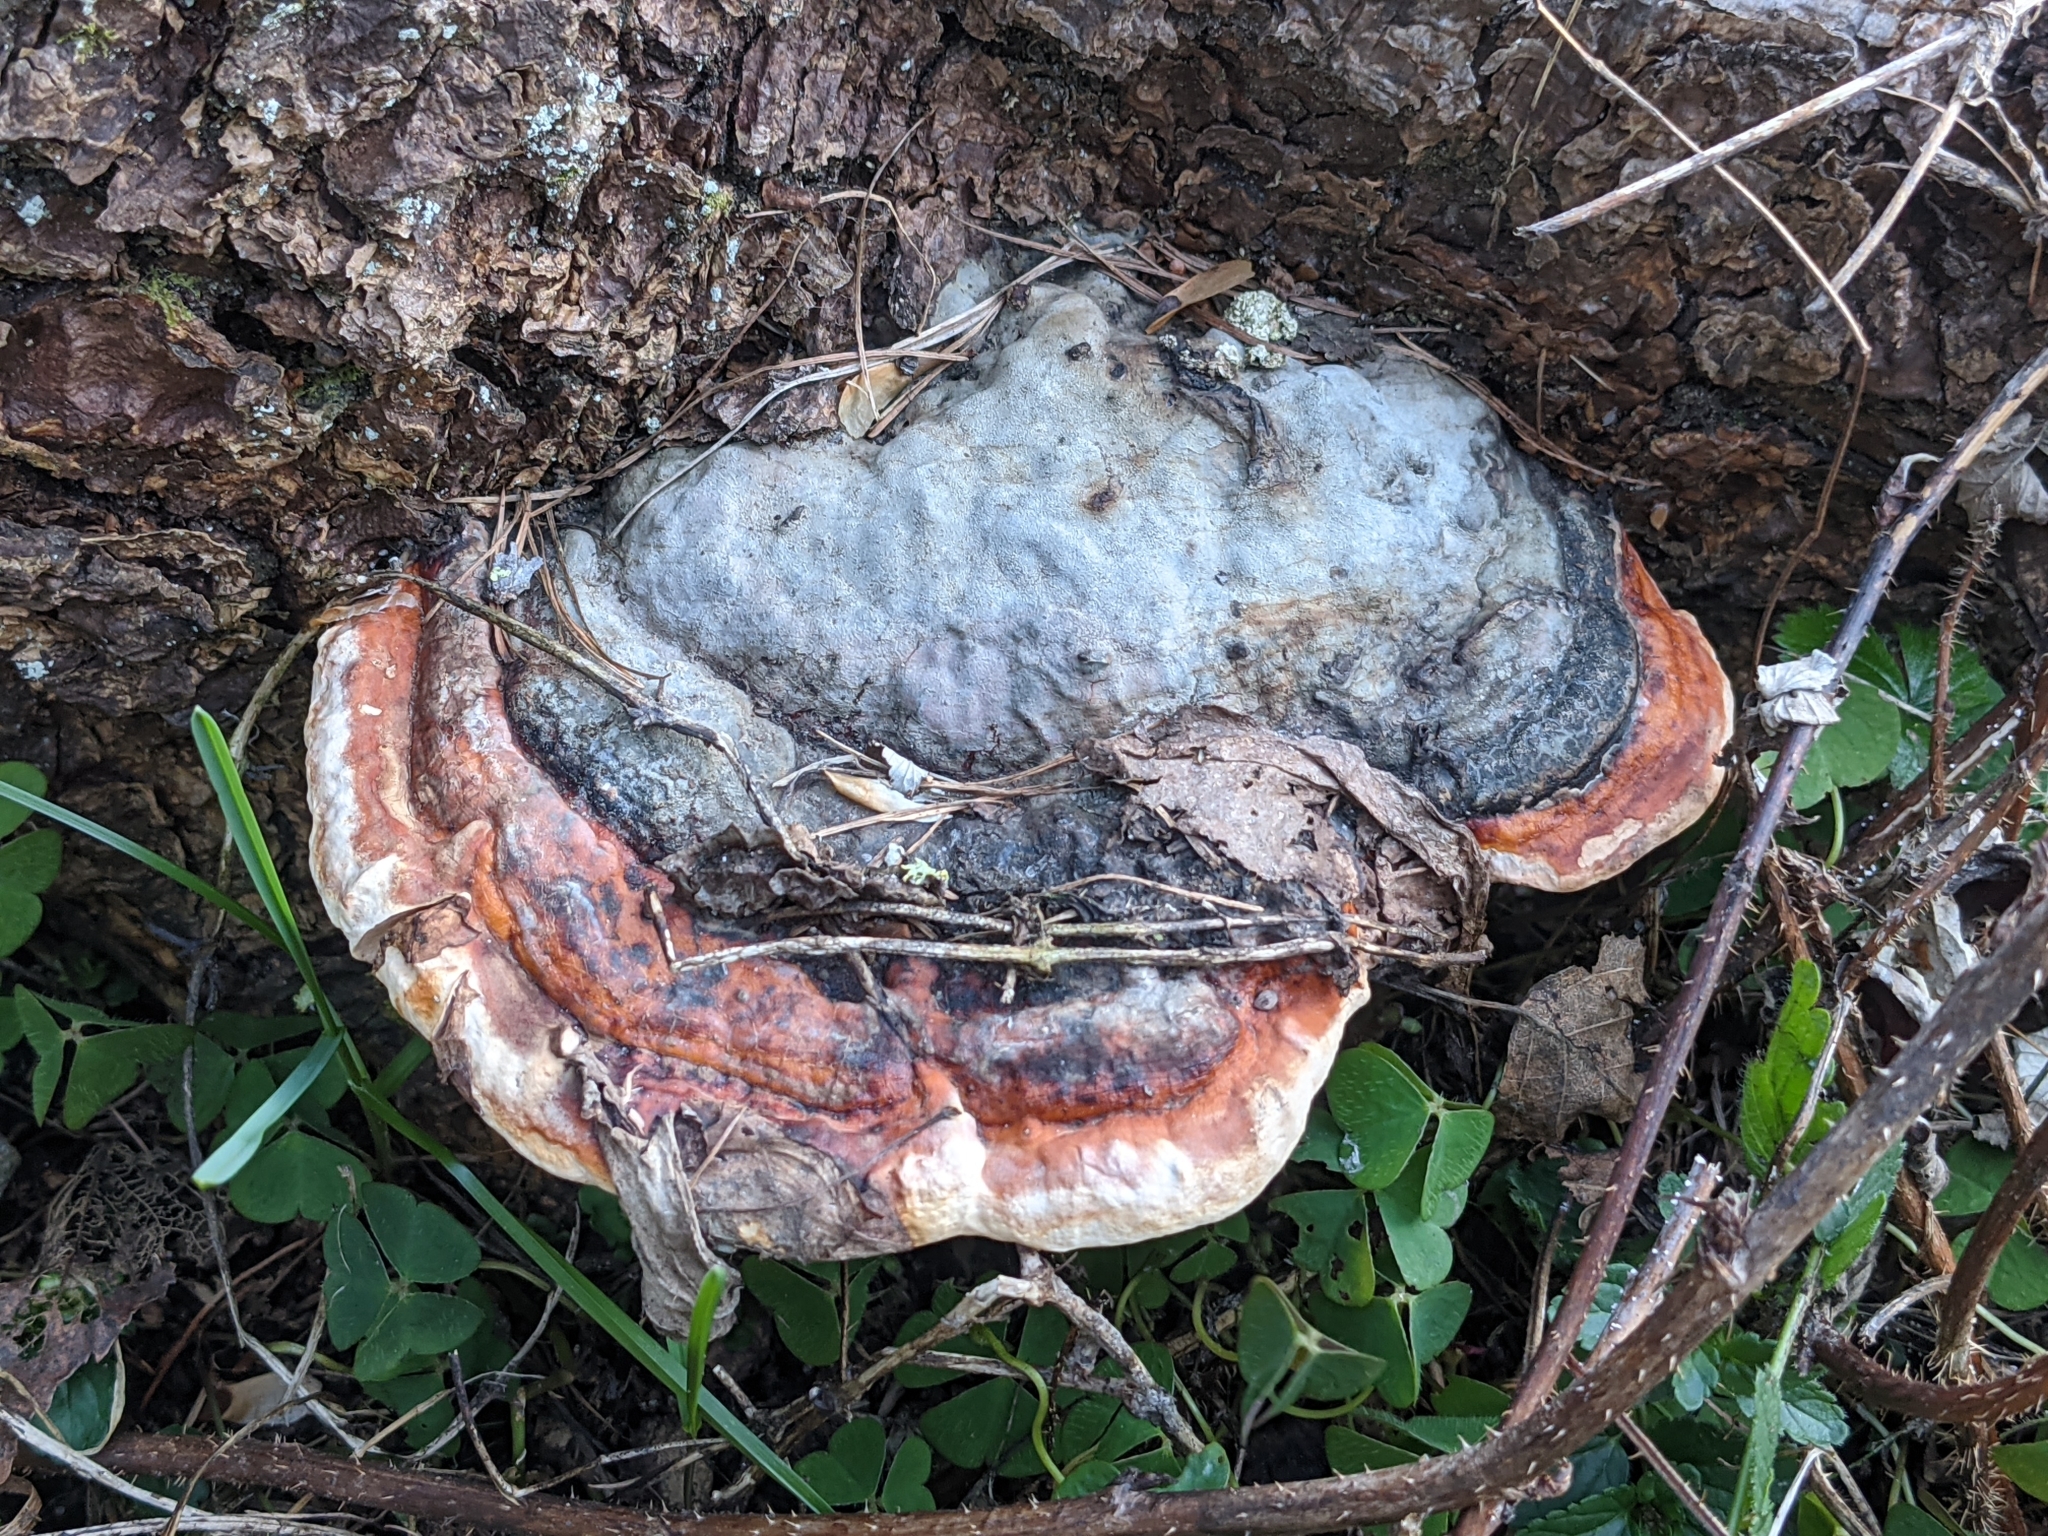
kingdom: Fungi
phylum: Basidiomycota
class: Agaricomycetes
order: Polyporales
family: Fomitopsidaceae
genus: Fomitopsis
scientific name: Fomitopsis pinicola
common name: Red-belted bracket
